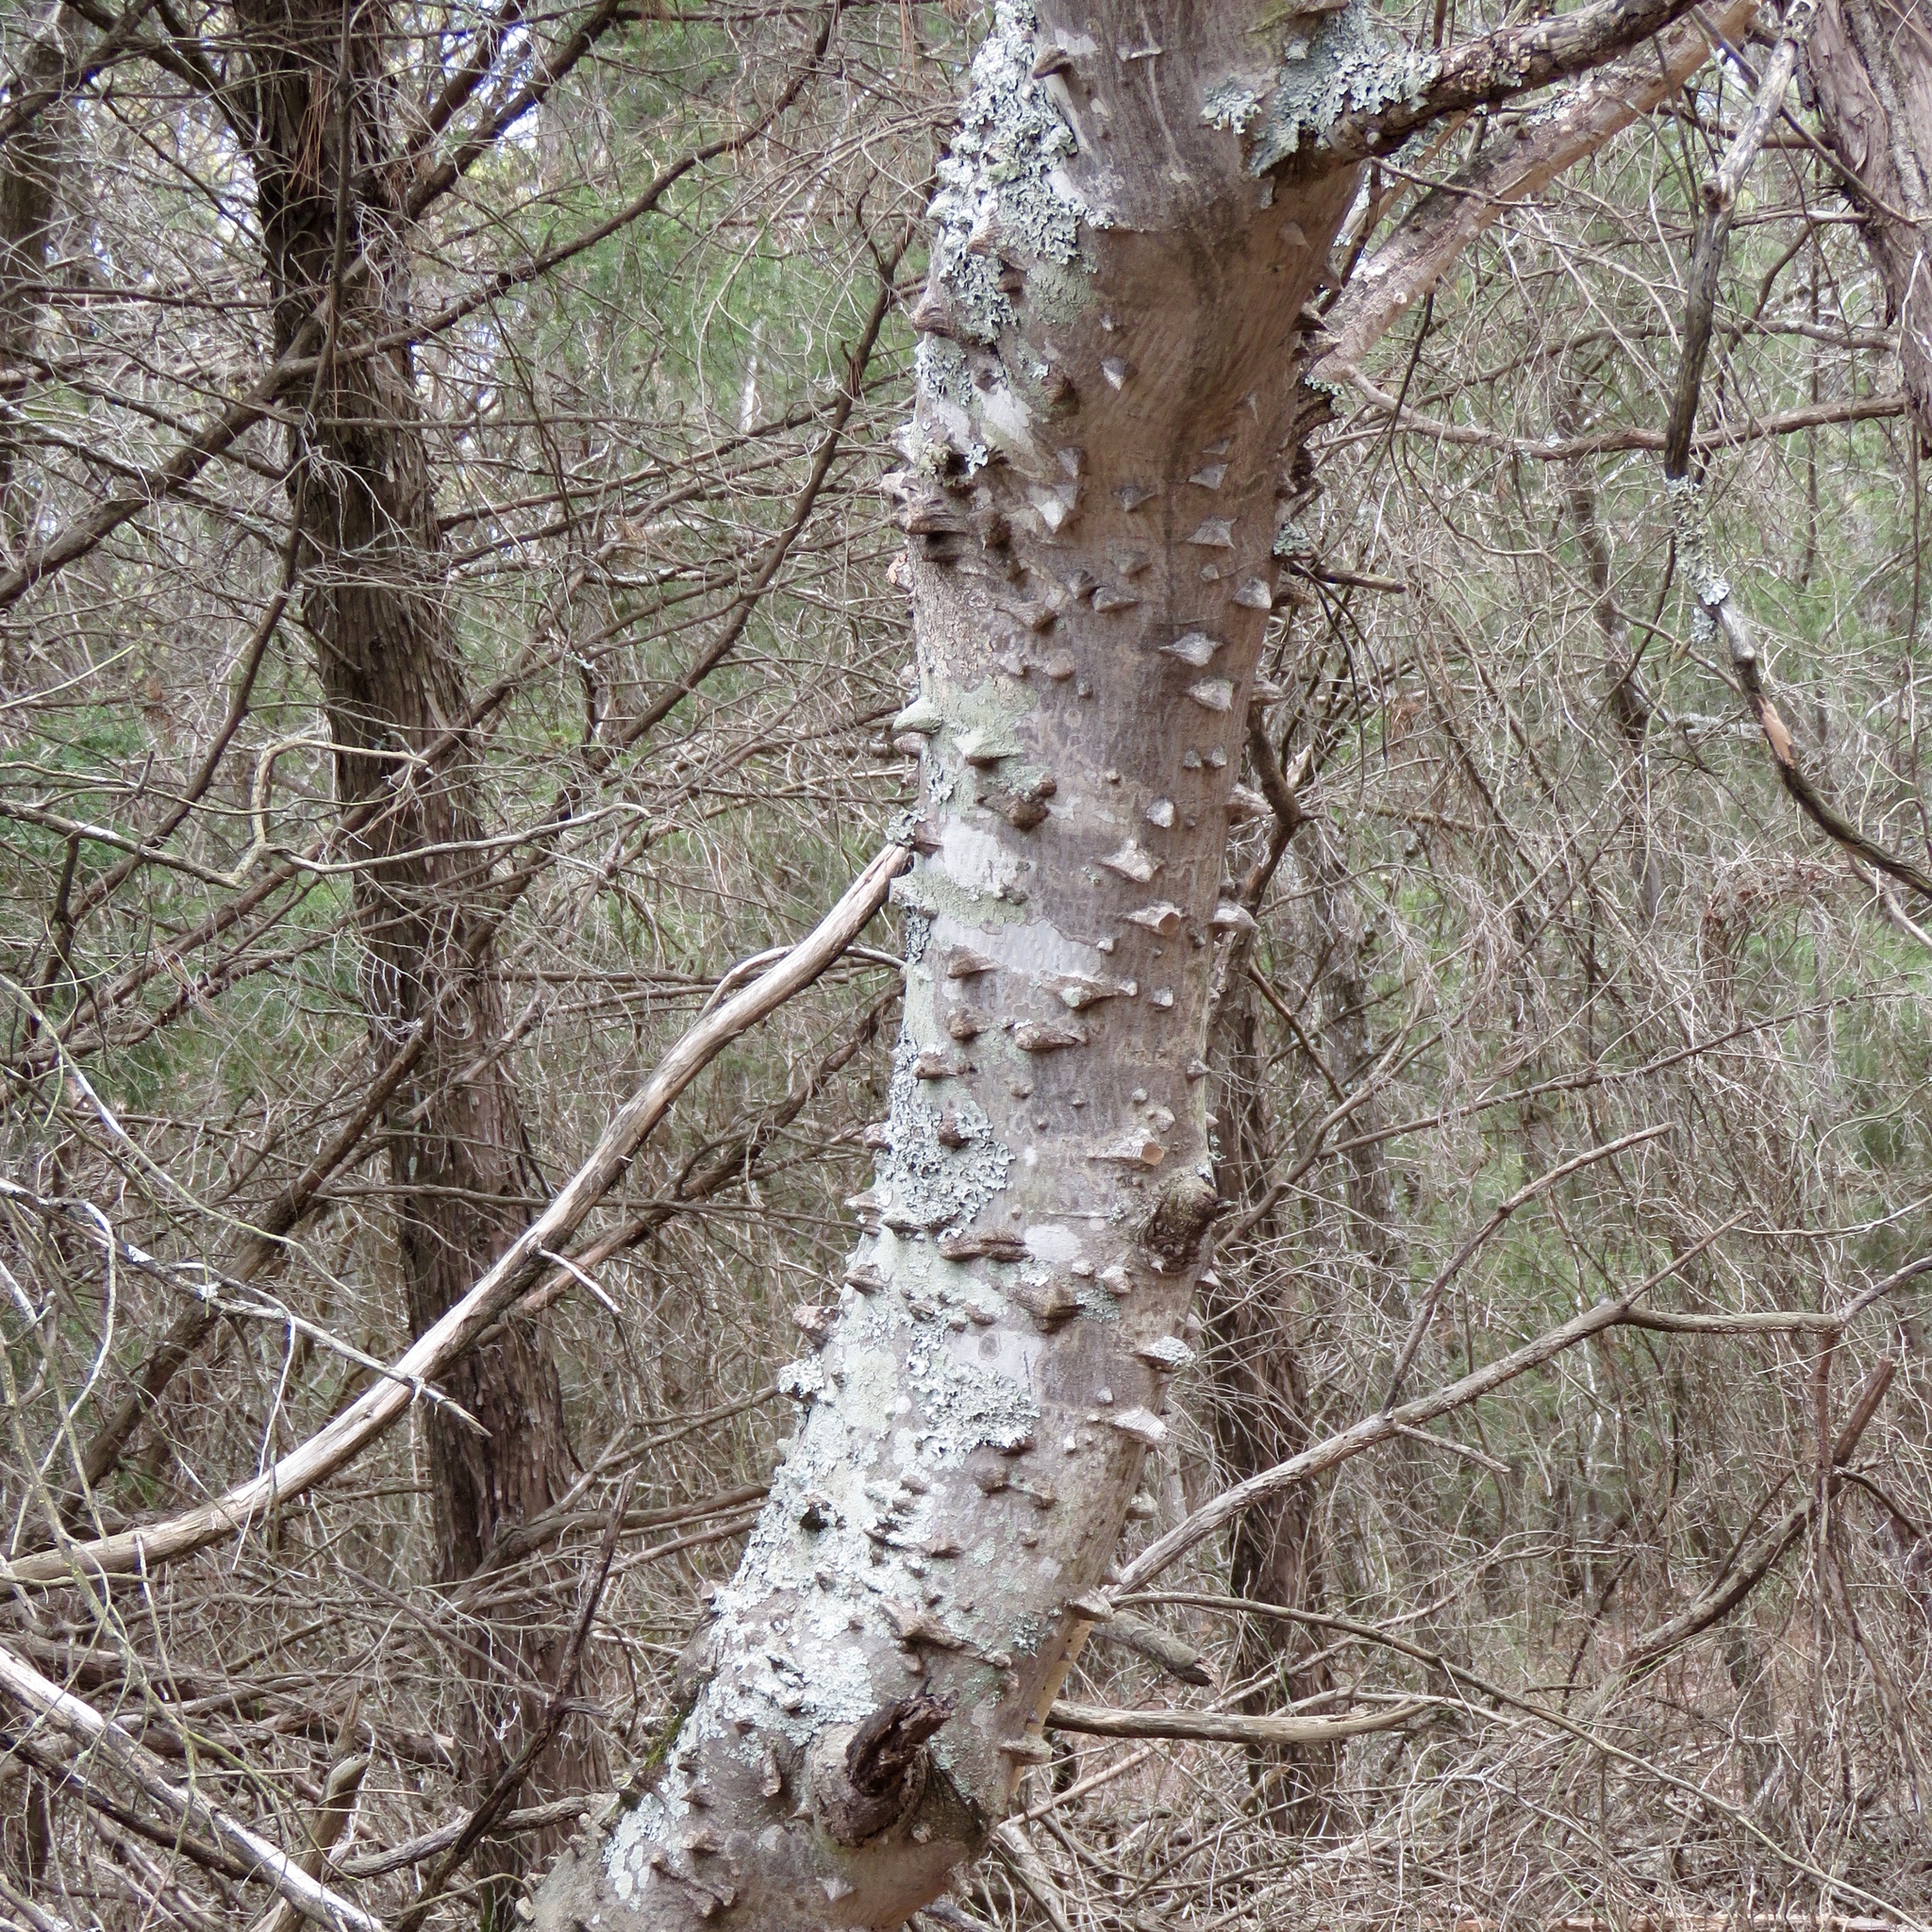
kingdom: Plantae
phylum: Tracheophyta
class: Magnoliopsida
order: Sapindales
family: Rutaceae
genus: Zanthoxylum
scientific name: Zanthoxylum clava-herculis
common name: Hercules'-club
